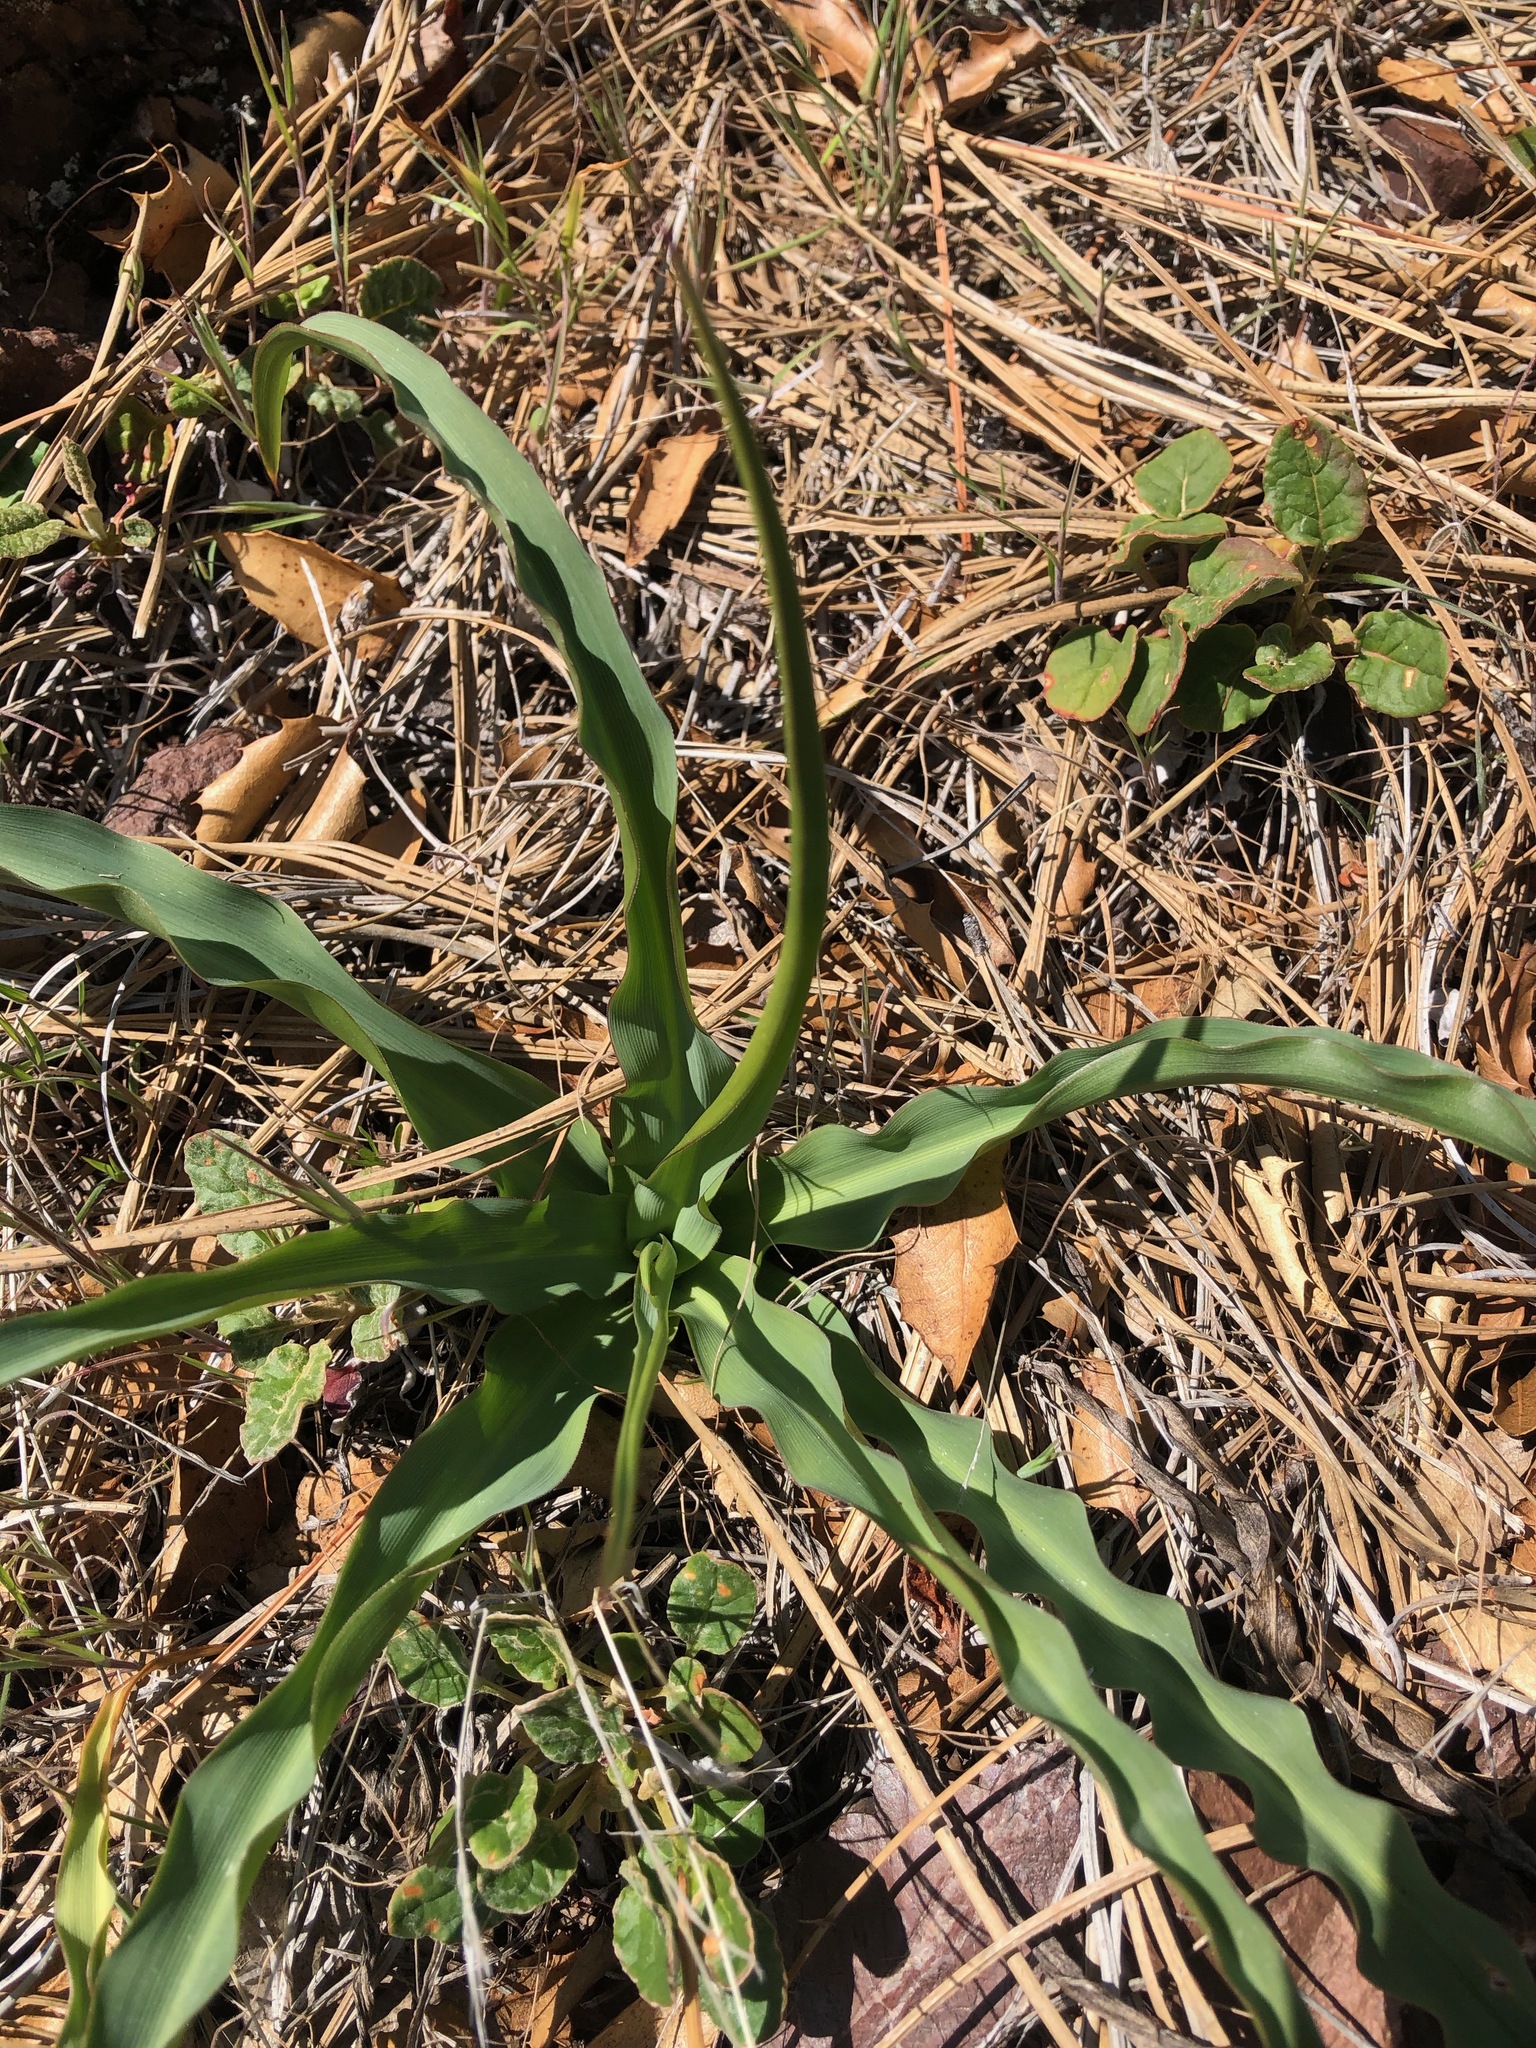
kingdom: Plantae
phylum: Tracheophyta
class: Liliopsida
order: Asparagales
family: Asparagaceae
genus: Chlorogalum
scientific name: Chlorogalum pomeridianum
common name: Amole
